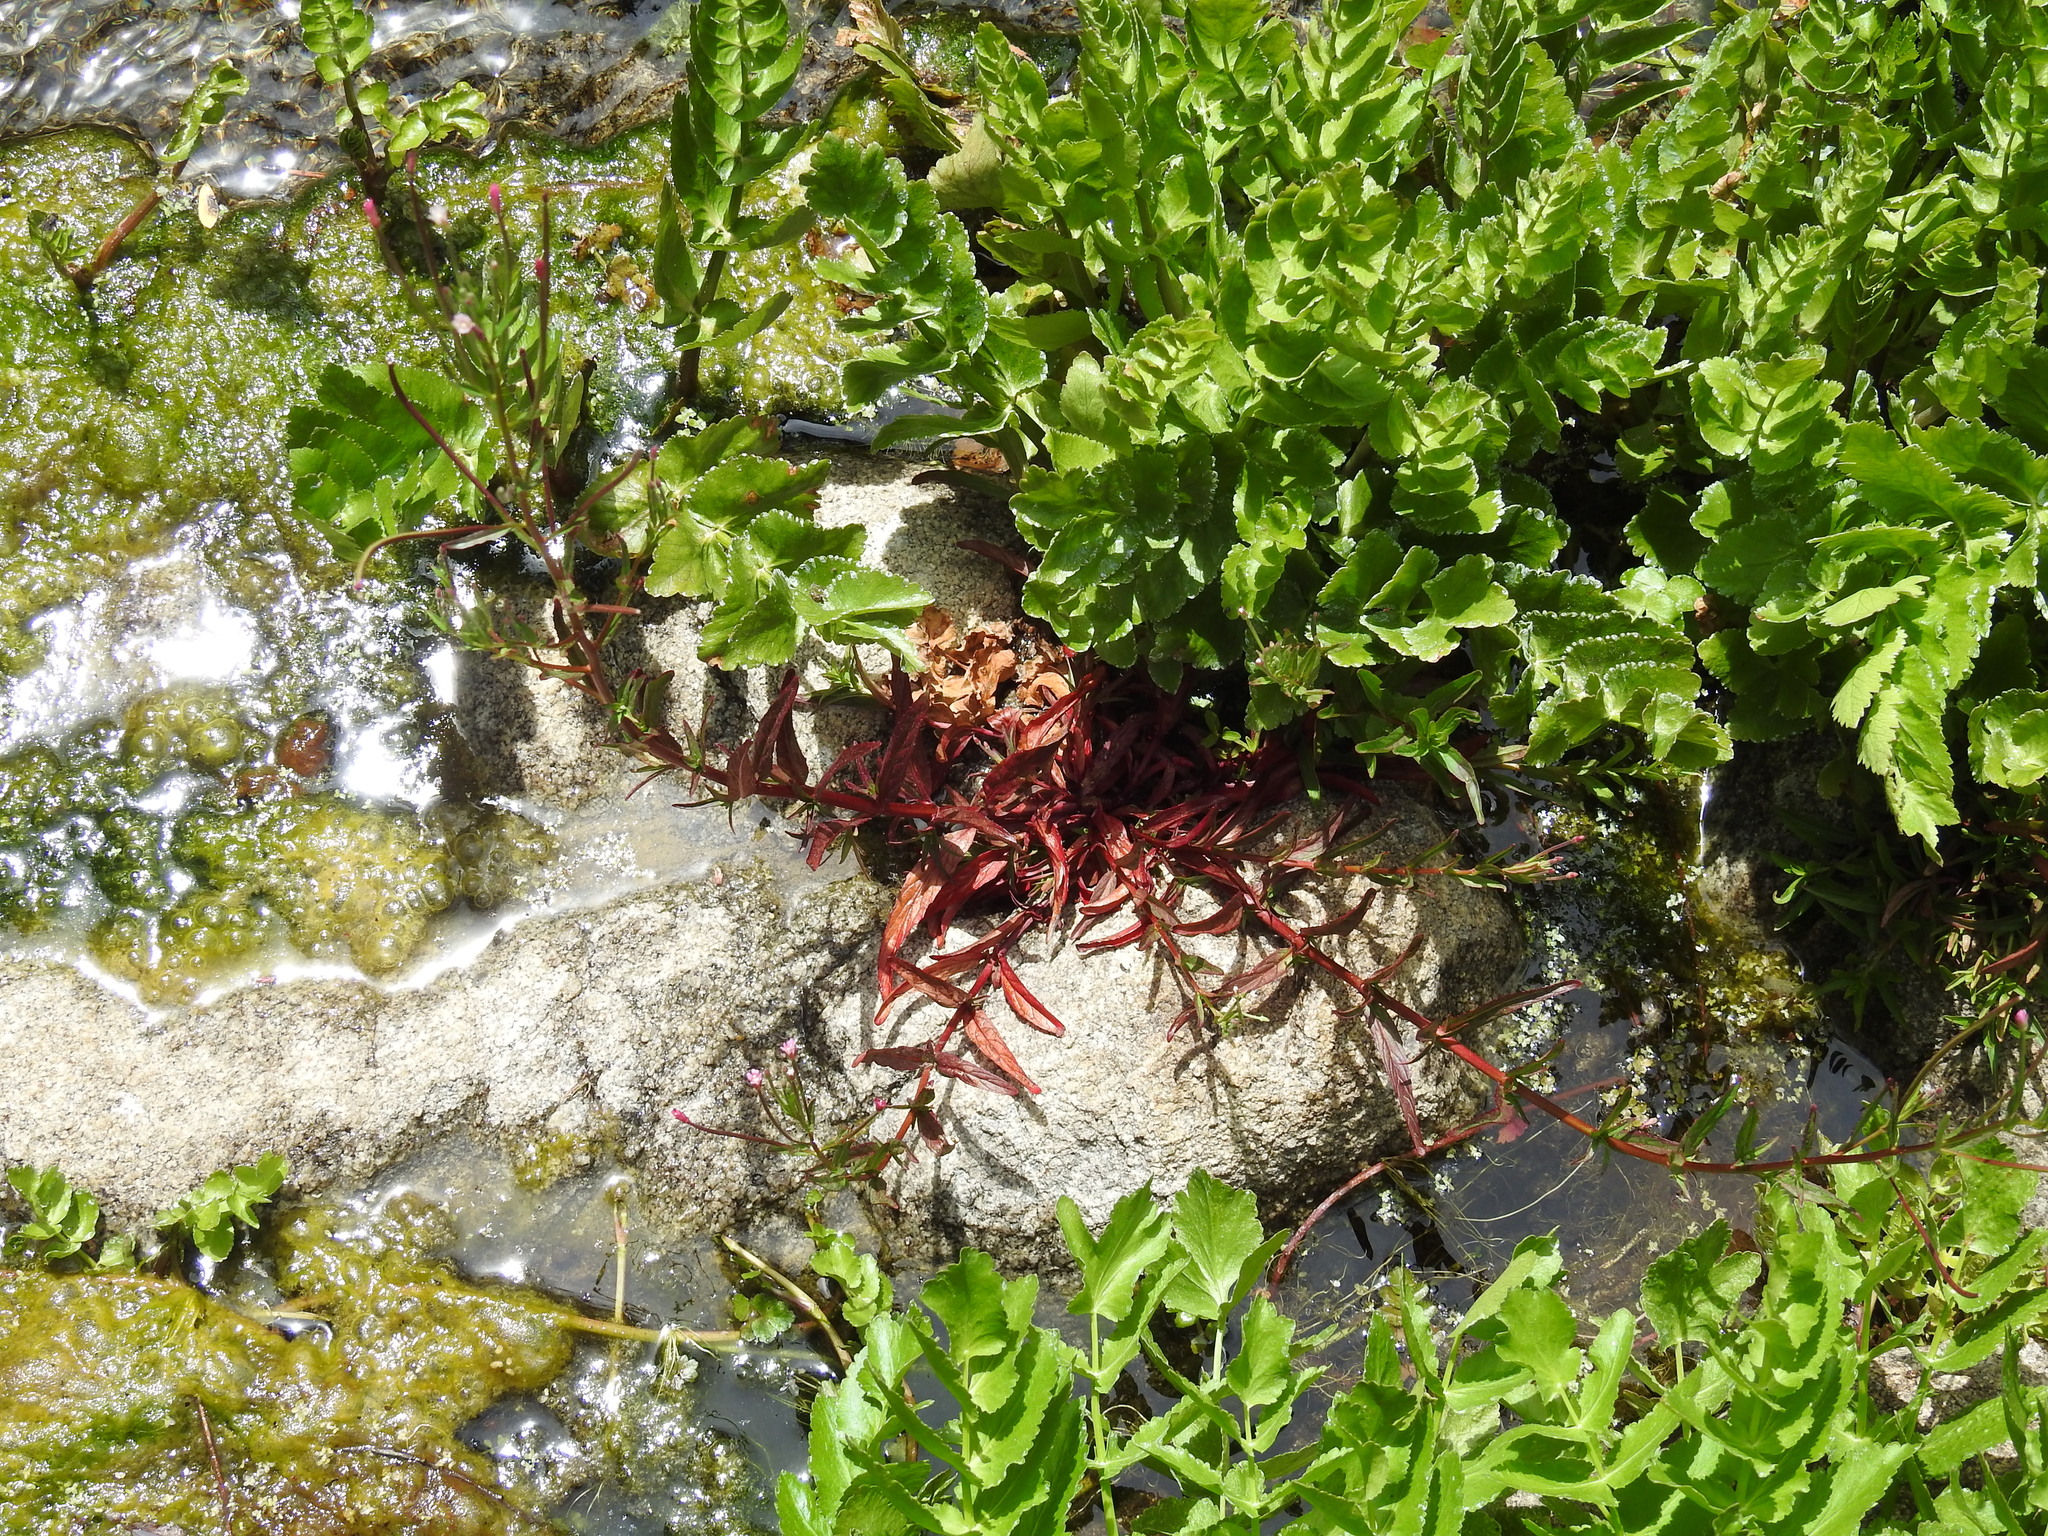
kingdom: Plantae
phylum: Tracheophyta
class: Magnoliopsida
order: Myrtales
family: Onagraceae
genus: Epilobium
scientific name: Epilobium ciliatum
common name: American willowherb
